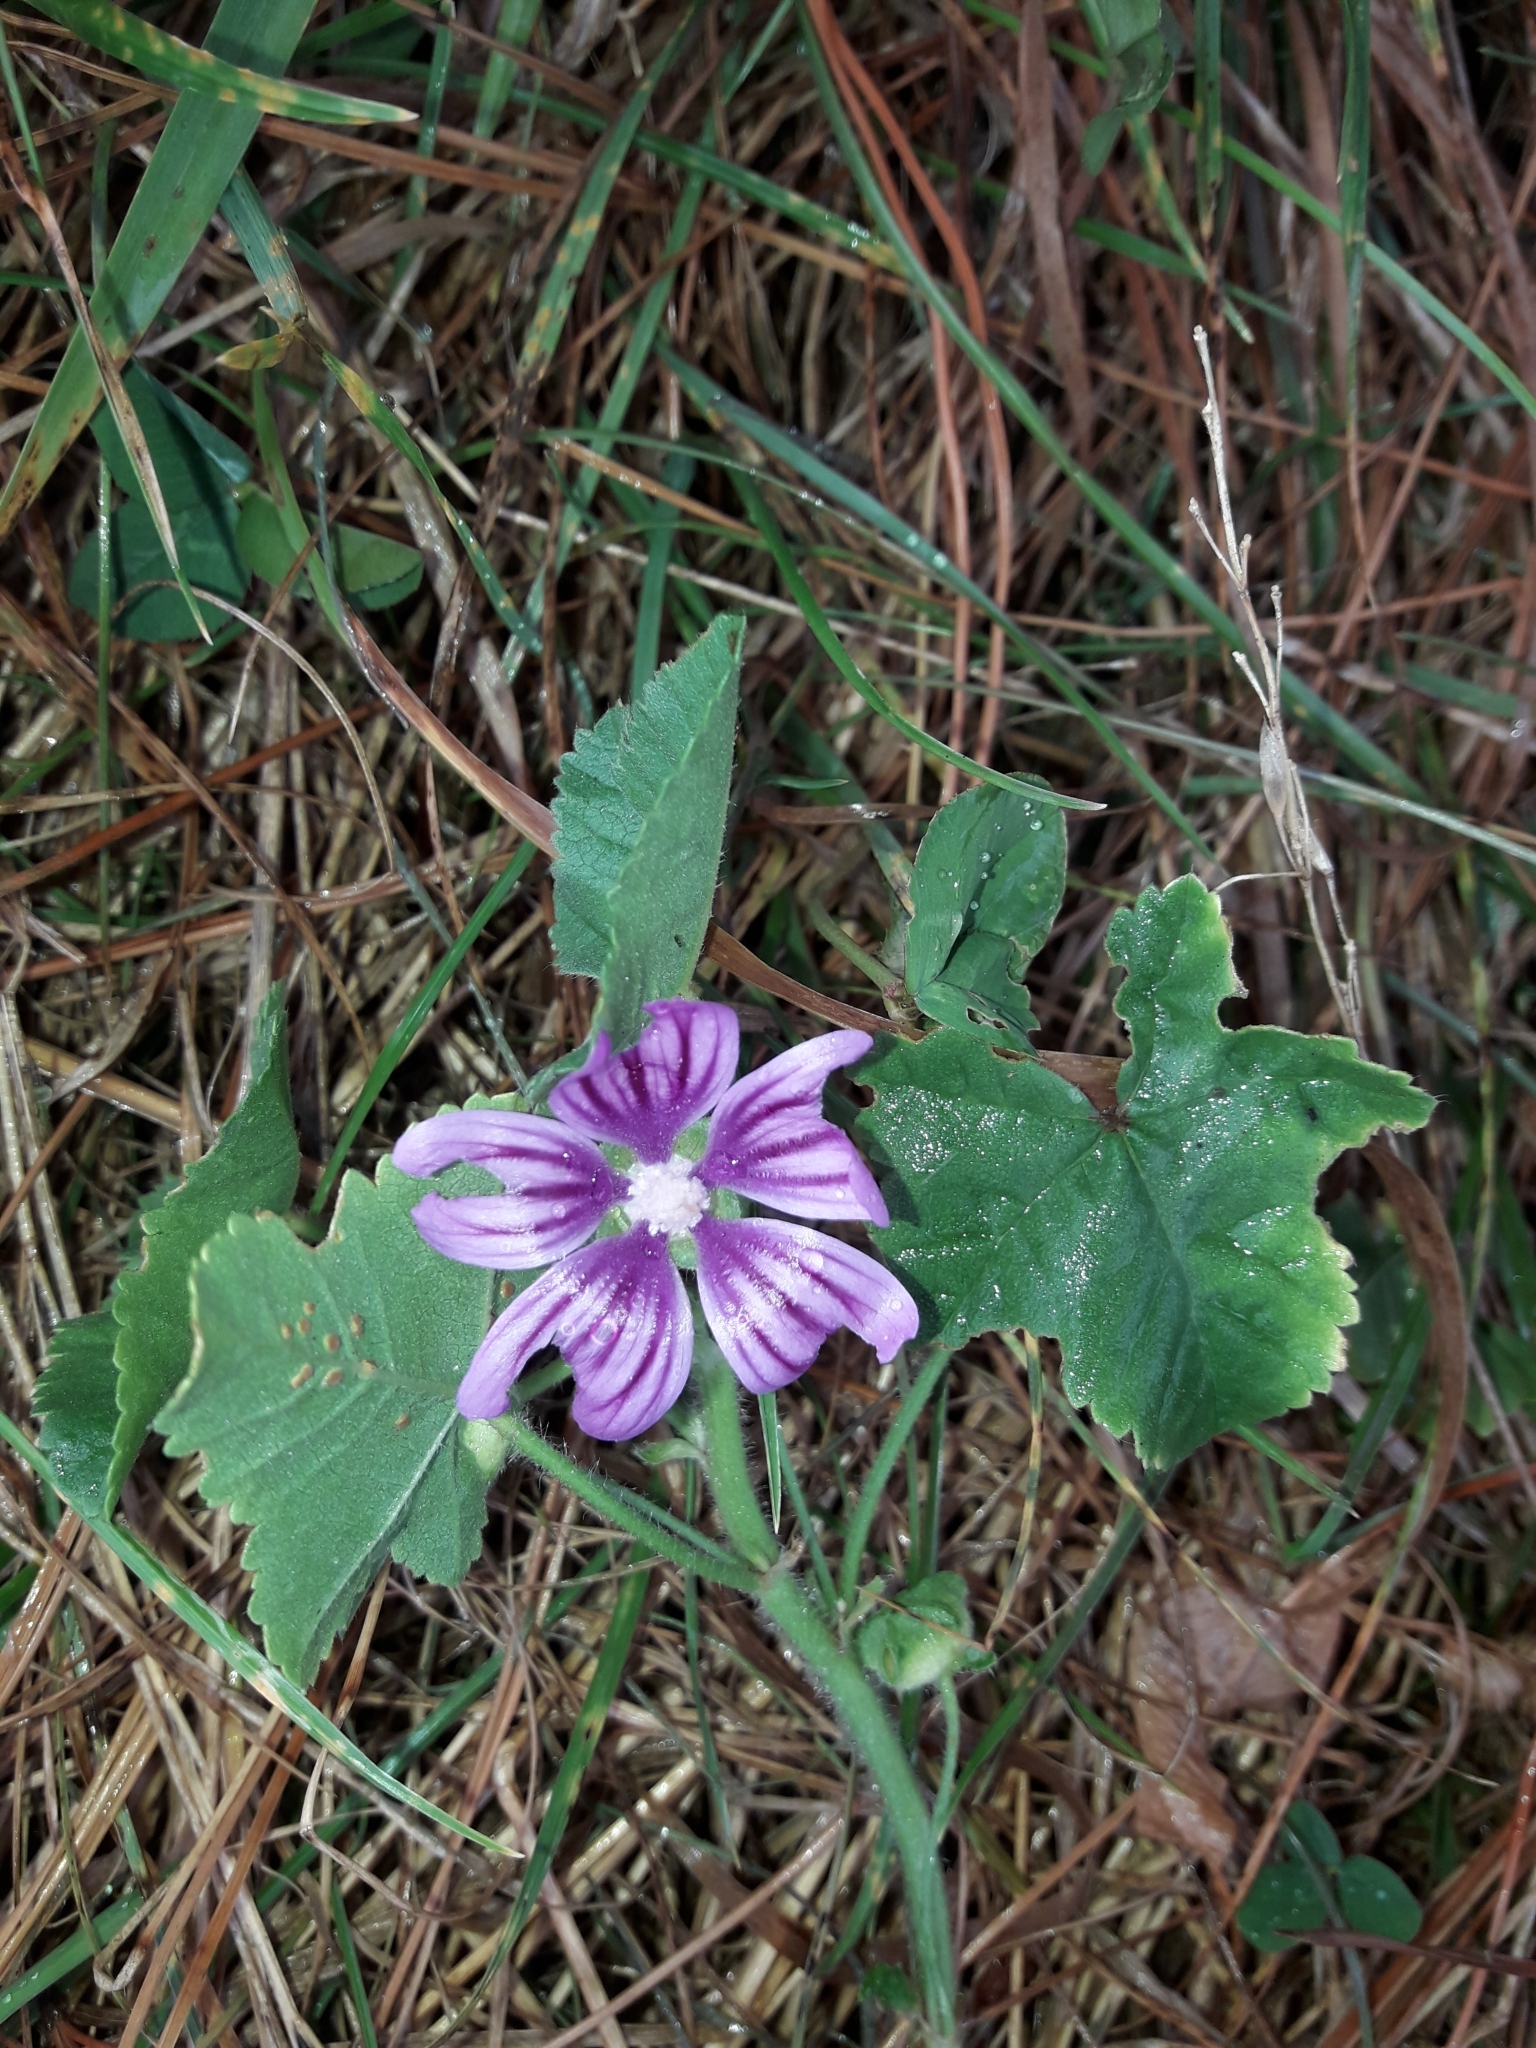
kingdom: Plantae
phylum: Tracheophyta
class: Magnoliopsida
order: Malvales
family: Malvaceae
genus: Malva
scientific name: Malva sylvestris
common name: Common mallow
